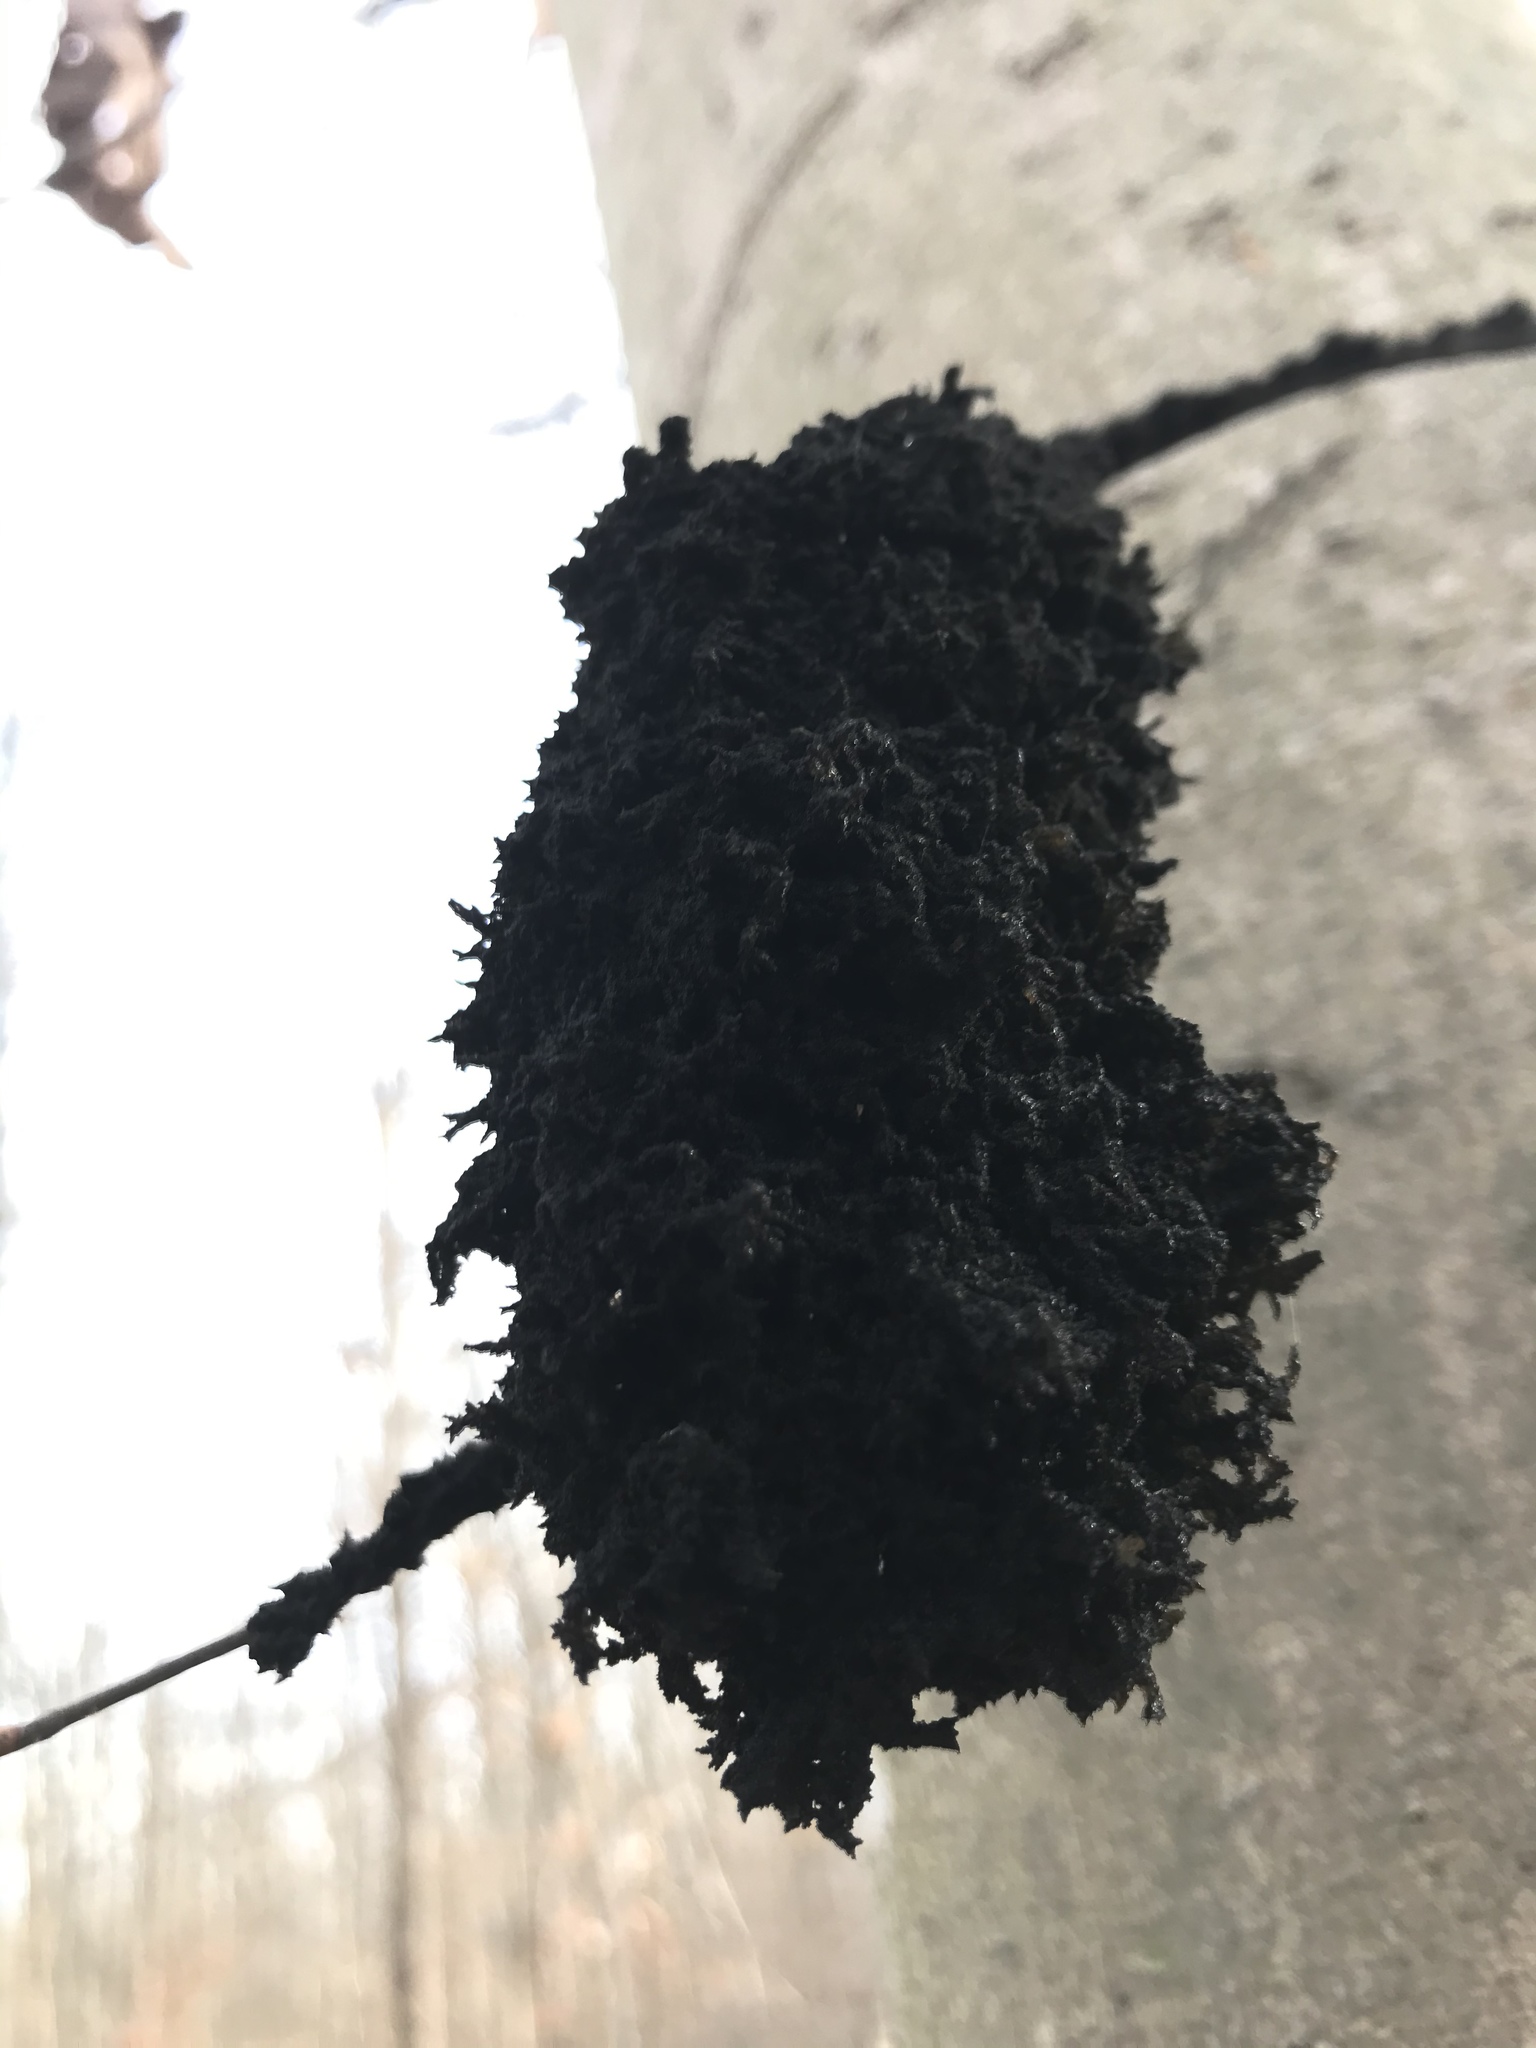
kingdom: Fungi
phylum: Ascomycota
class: Dothideomycetes
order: Capnodiales
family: Capnodiaceae
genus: Scorias
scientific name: Scorias spongiosa
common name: Black sooty mold
